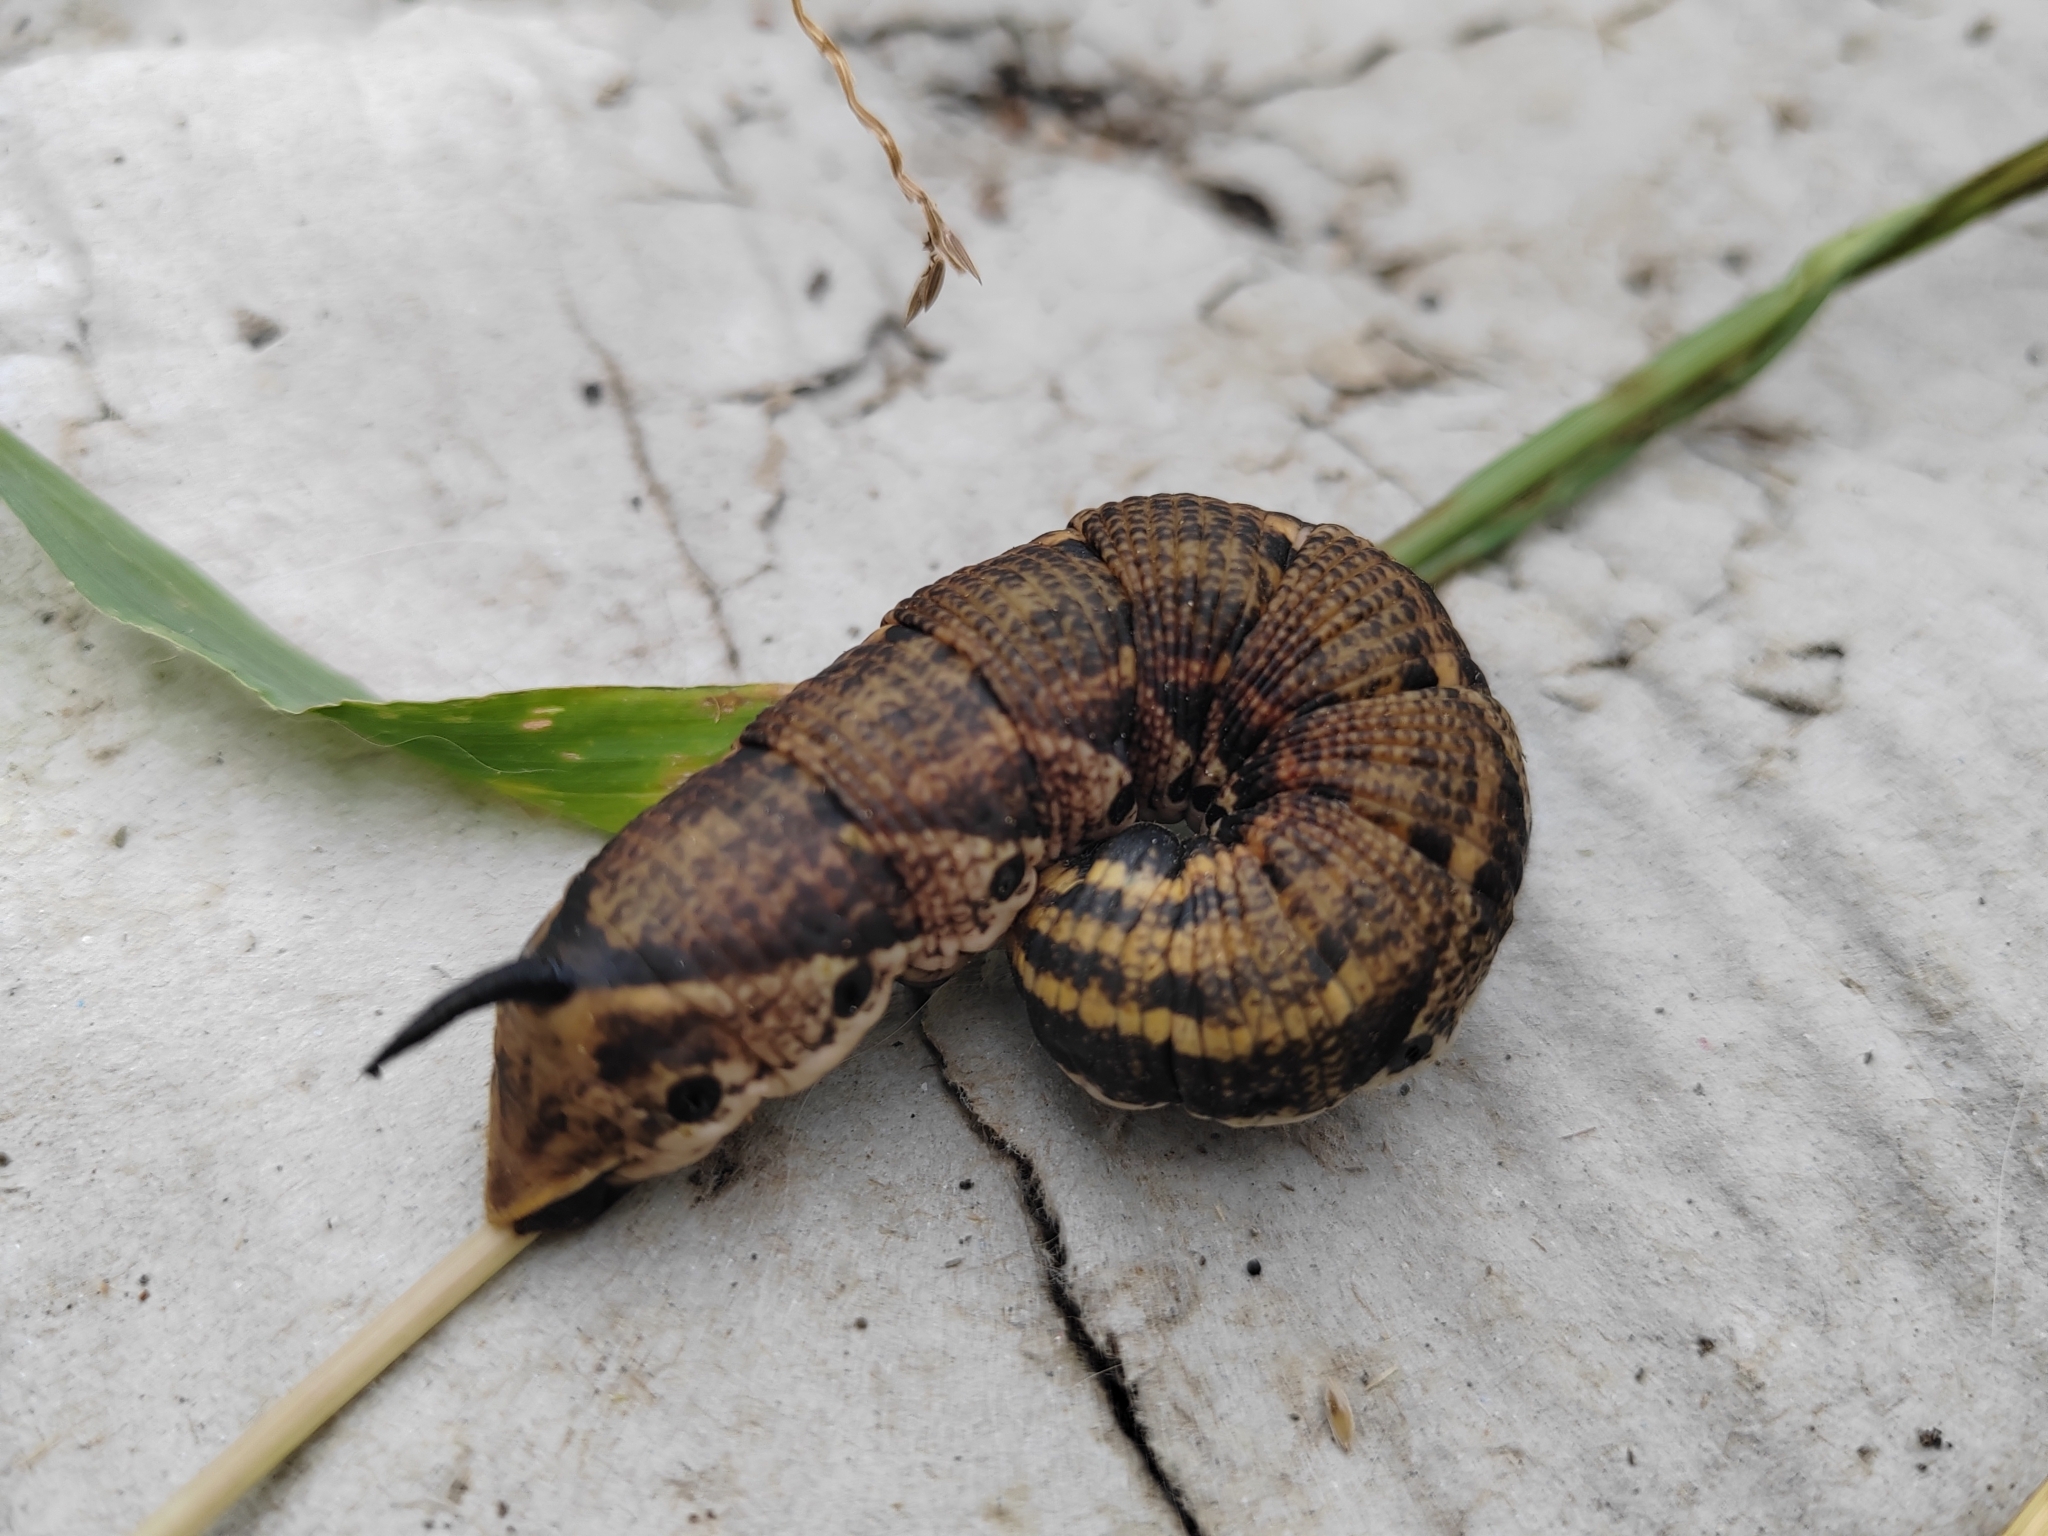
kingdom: Animalia
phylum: Arthropoda
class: Insecta
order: Lepidoptera
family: Sphingidae
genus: Agrius
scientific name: Agrius convolvuli
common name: Convolvulus hawkmoth
